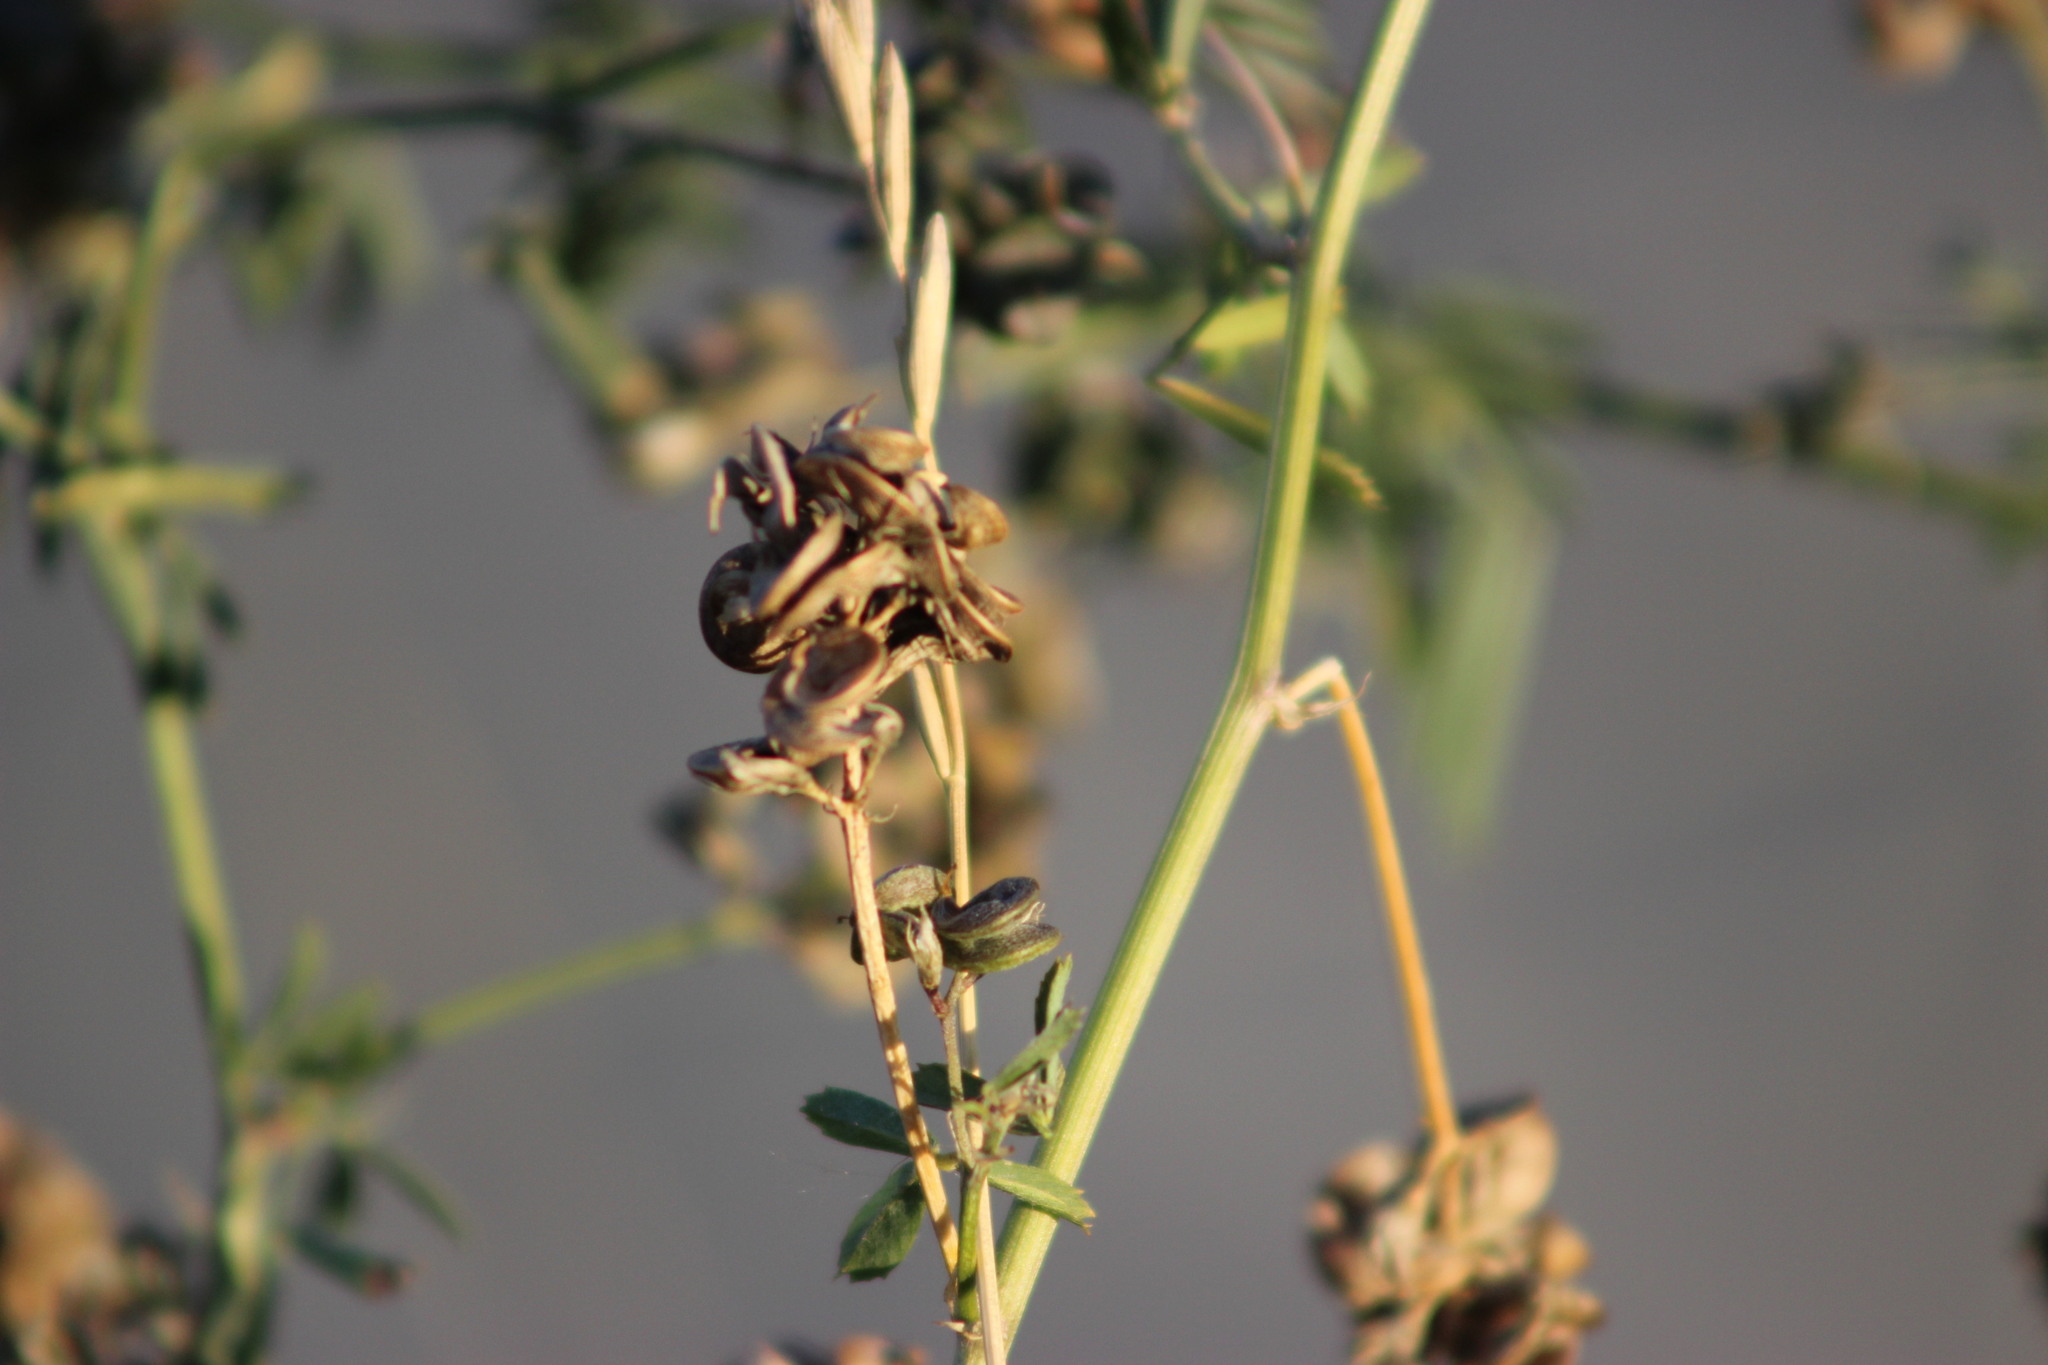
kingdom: Plantae
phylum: Tracheophyta
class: Magnoliopsida
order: Fabales
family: Fabaceae
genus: Medicago
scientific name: Medicago varia
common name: Sand lucerne
